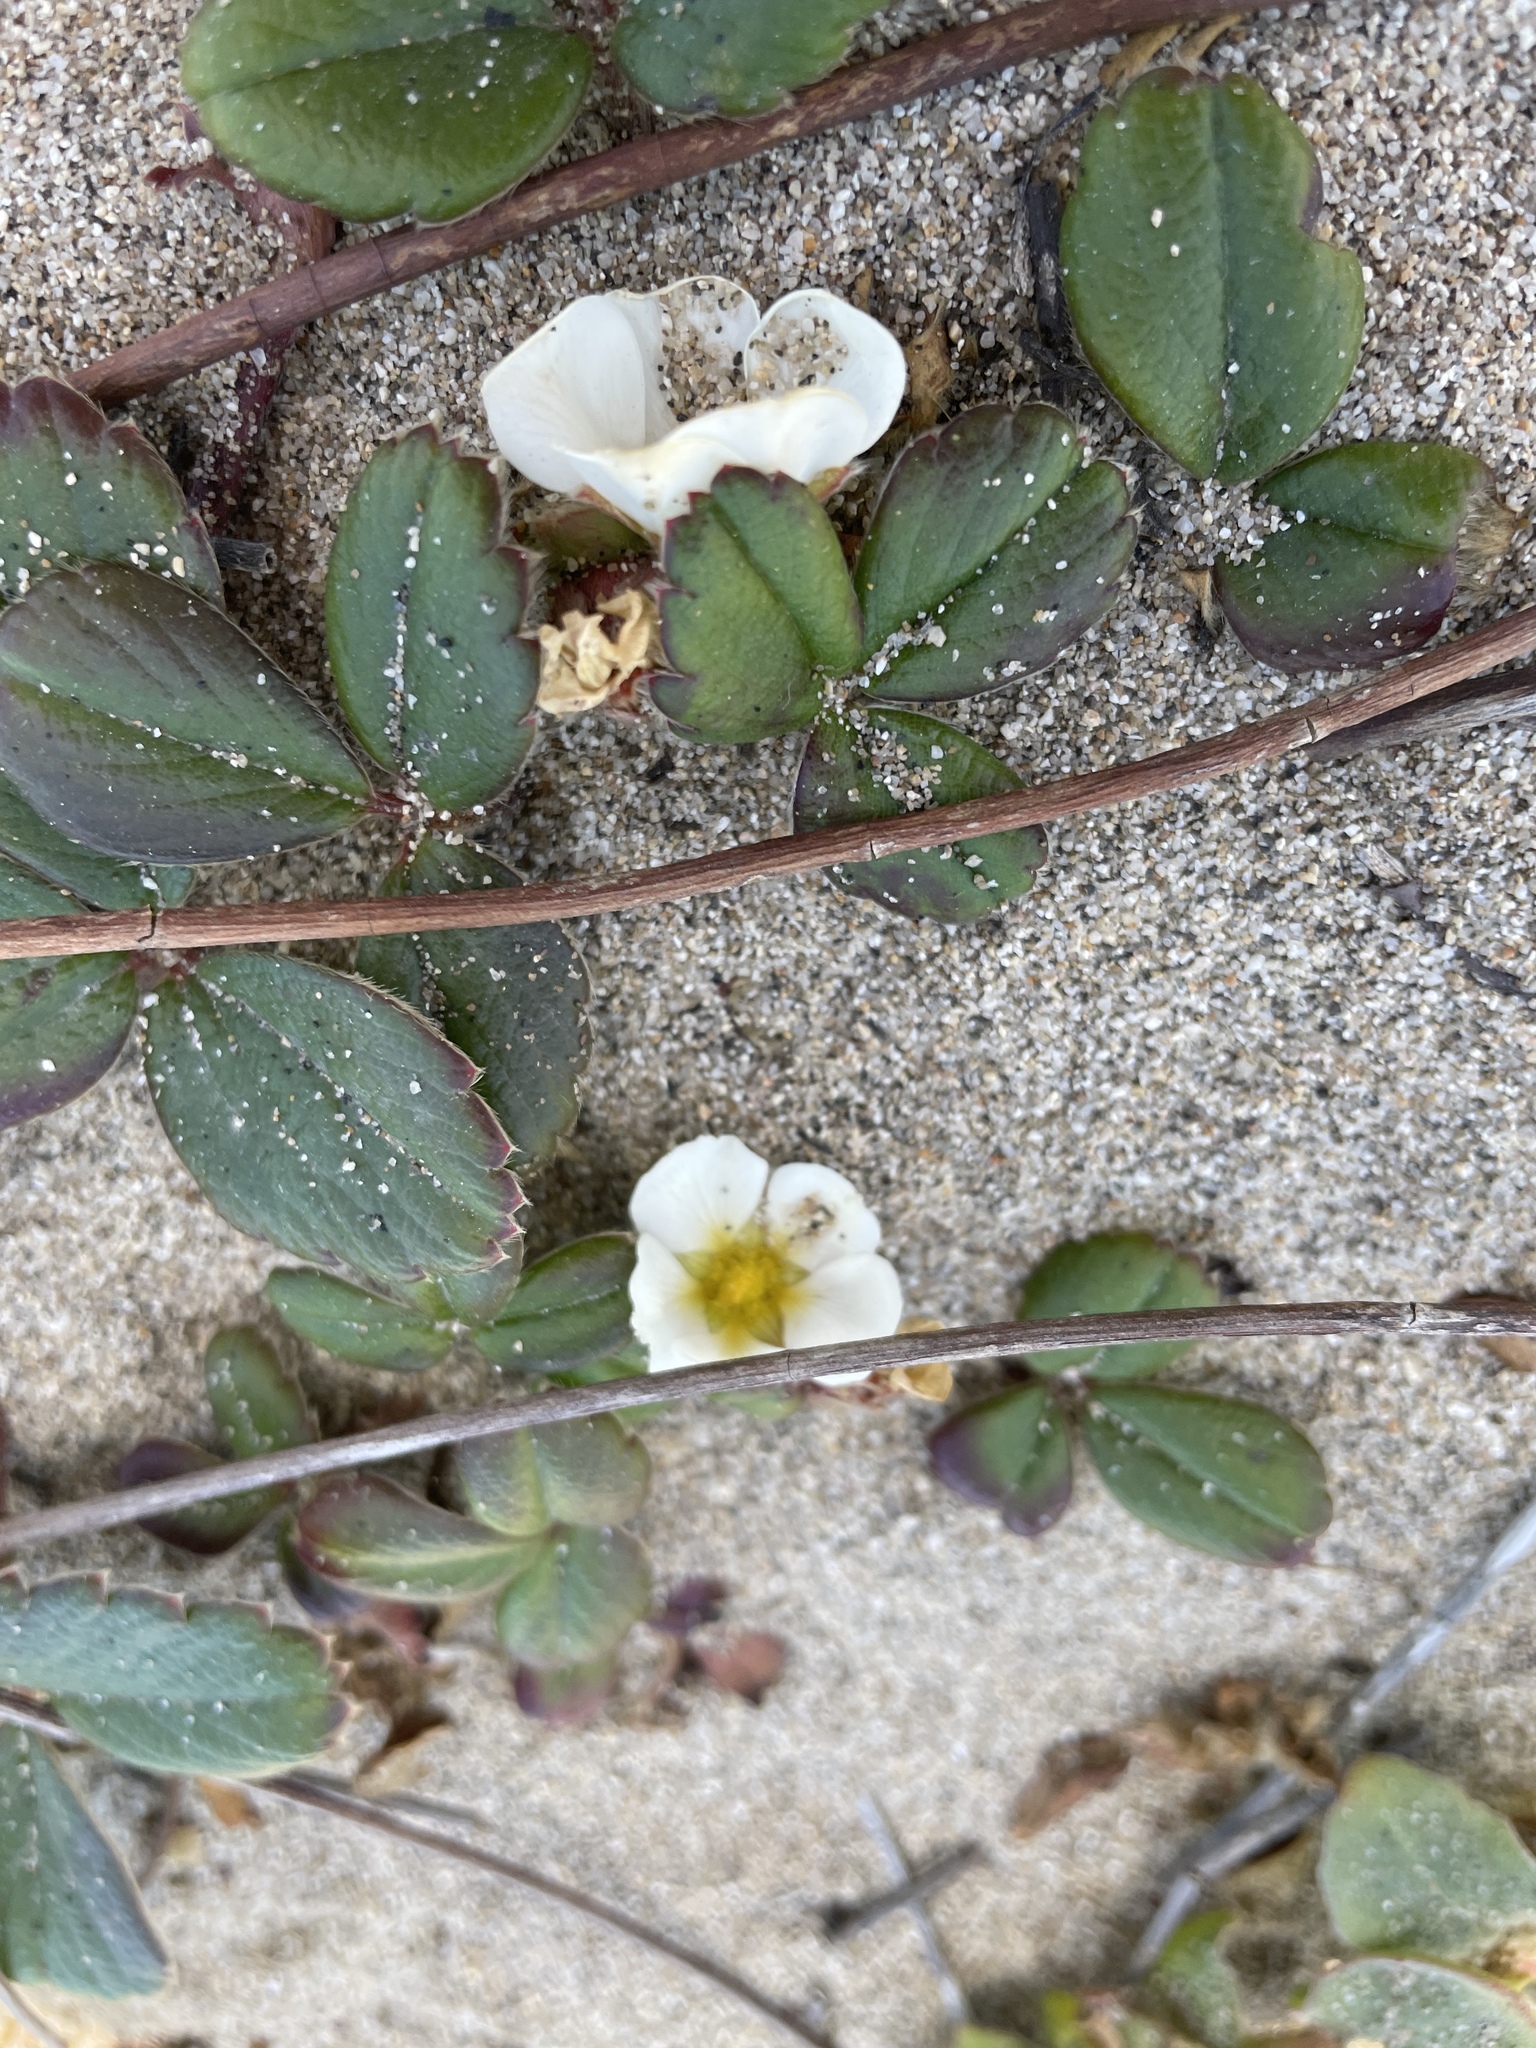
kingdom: Plantae
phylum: Tracheophyta
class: Magnoliopsida
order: Rosales
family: Rosaceae
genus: Fragaria
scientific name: Fragaria chiloensis
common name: Beach strawberry
